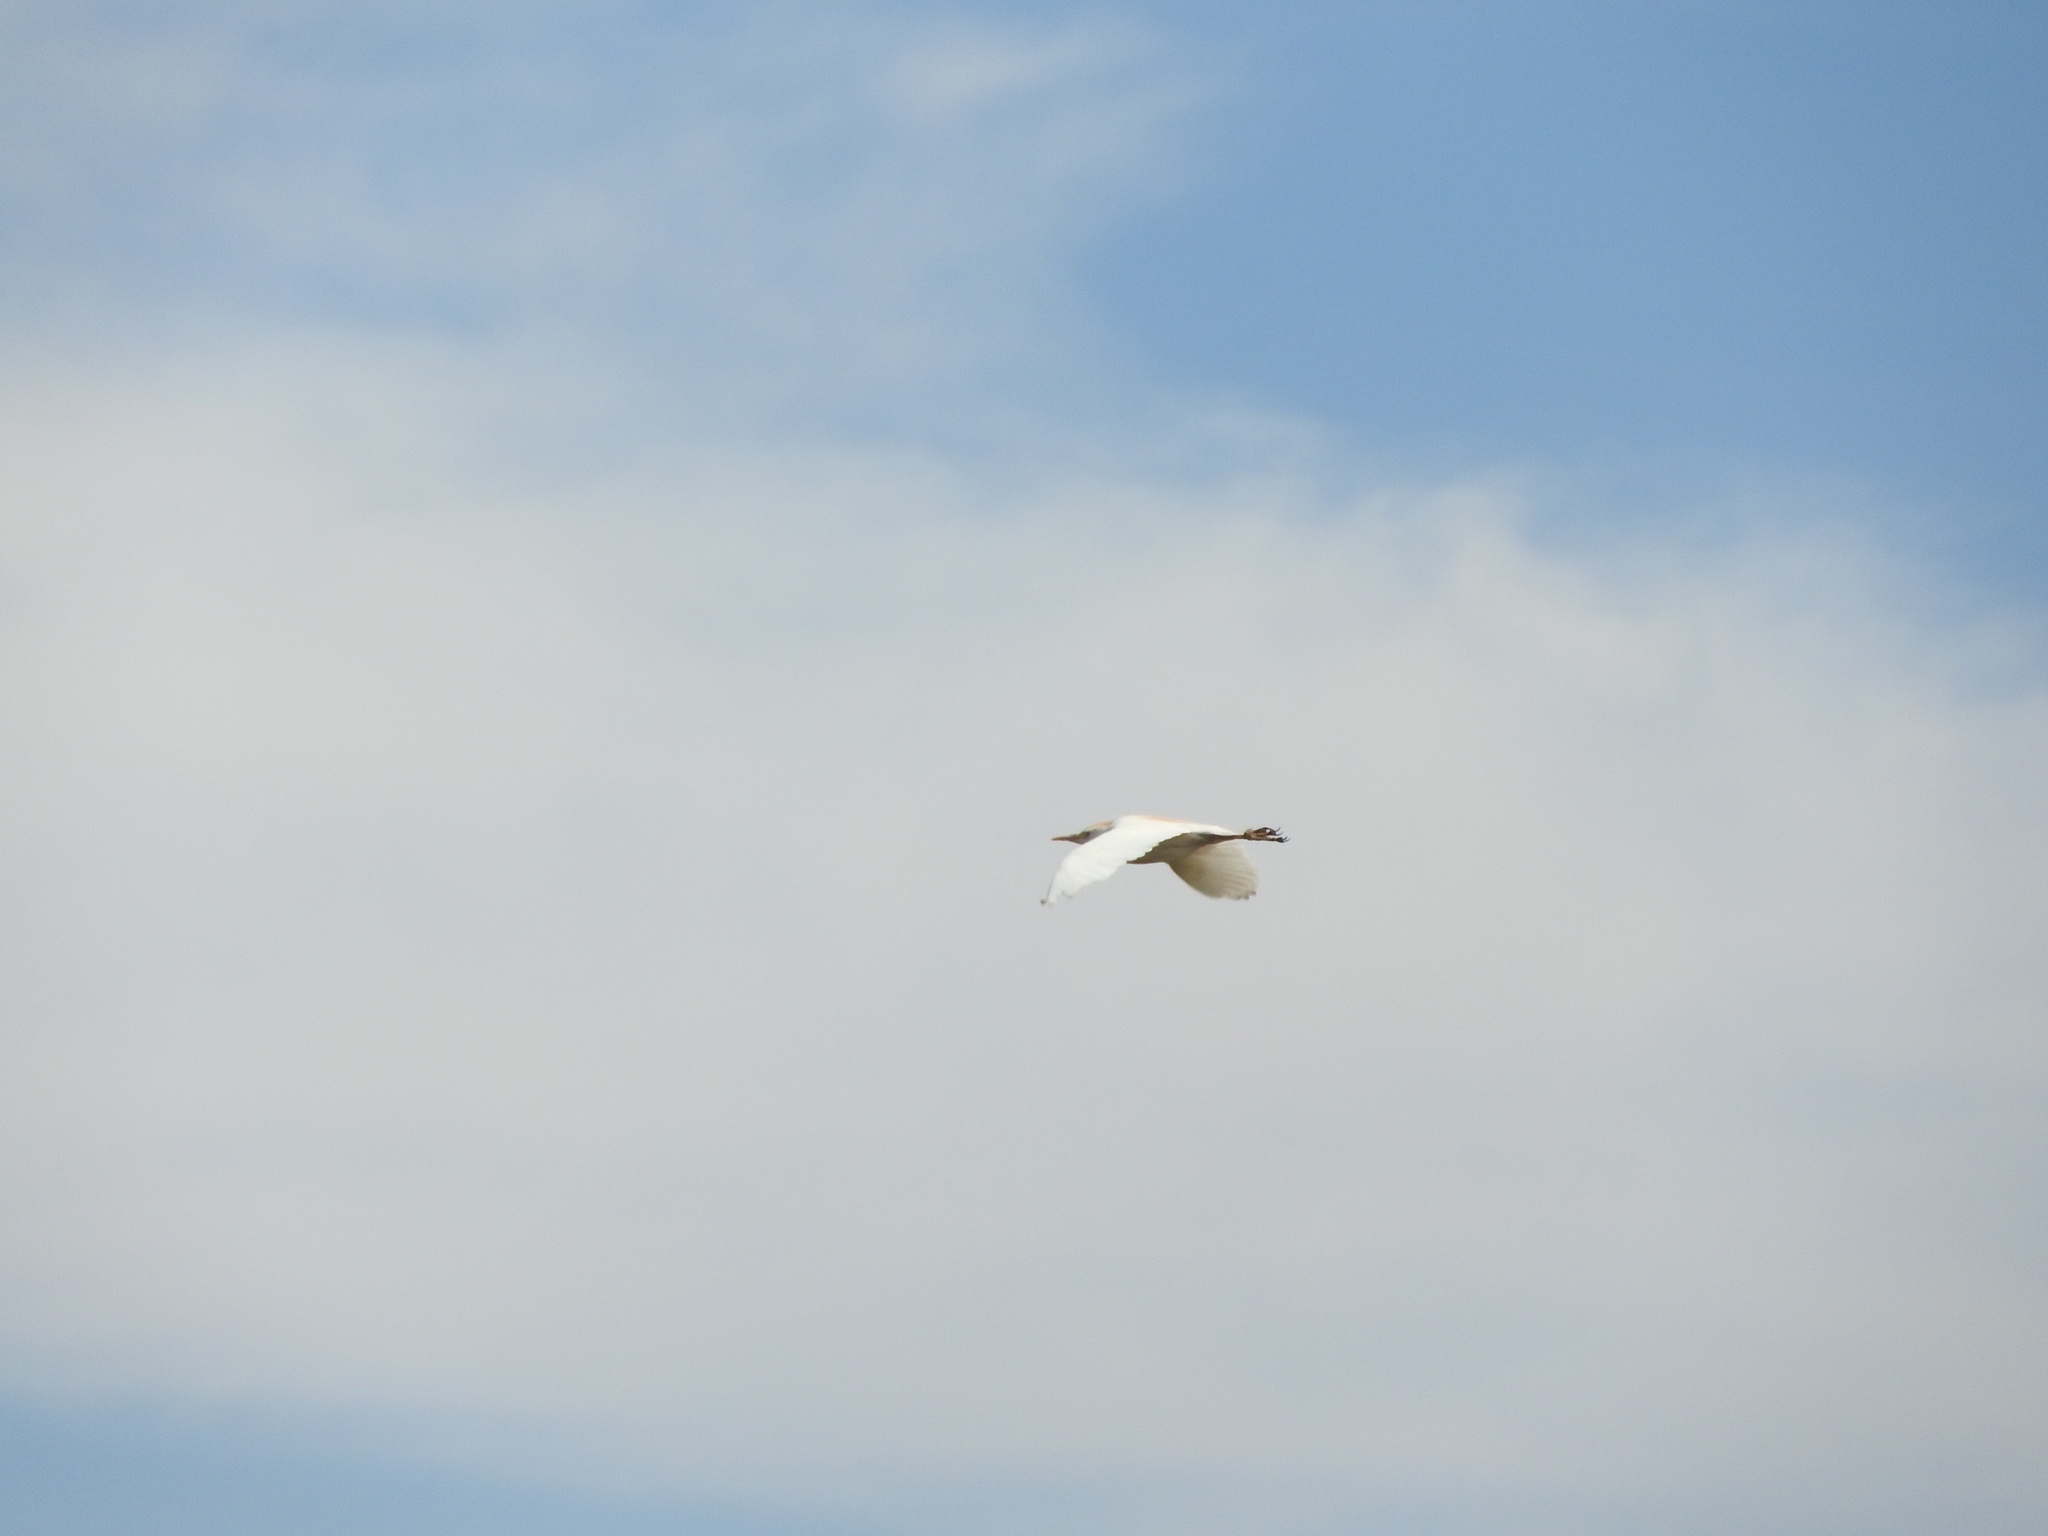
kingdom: Animalia
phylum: Chordata
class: Aves
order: Pelecaniformes
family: Ardeidae
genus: Bubulcus
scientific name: Bubulcus ibis
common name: Cattle egret
